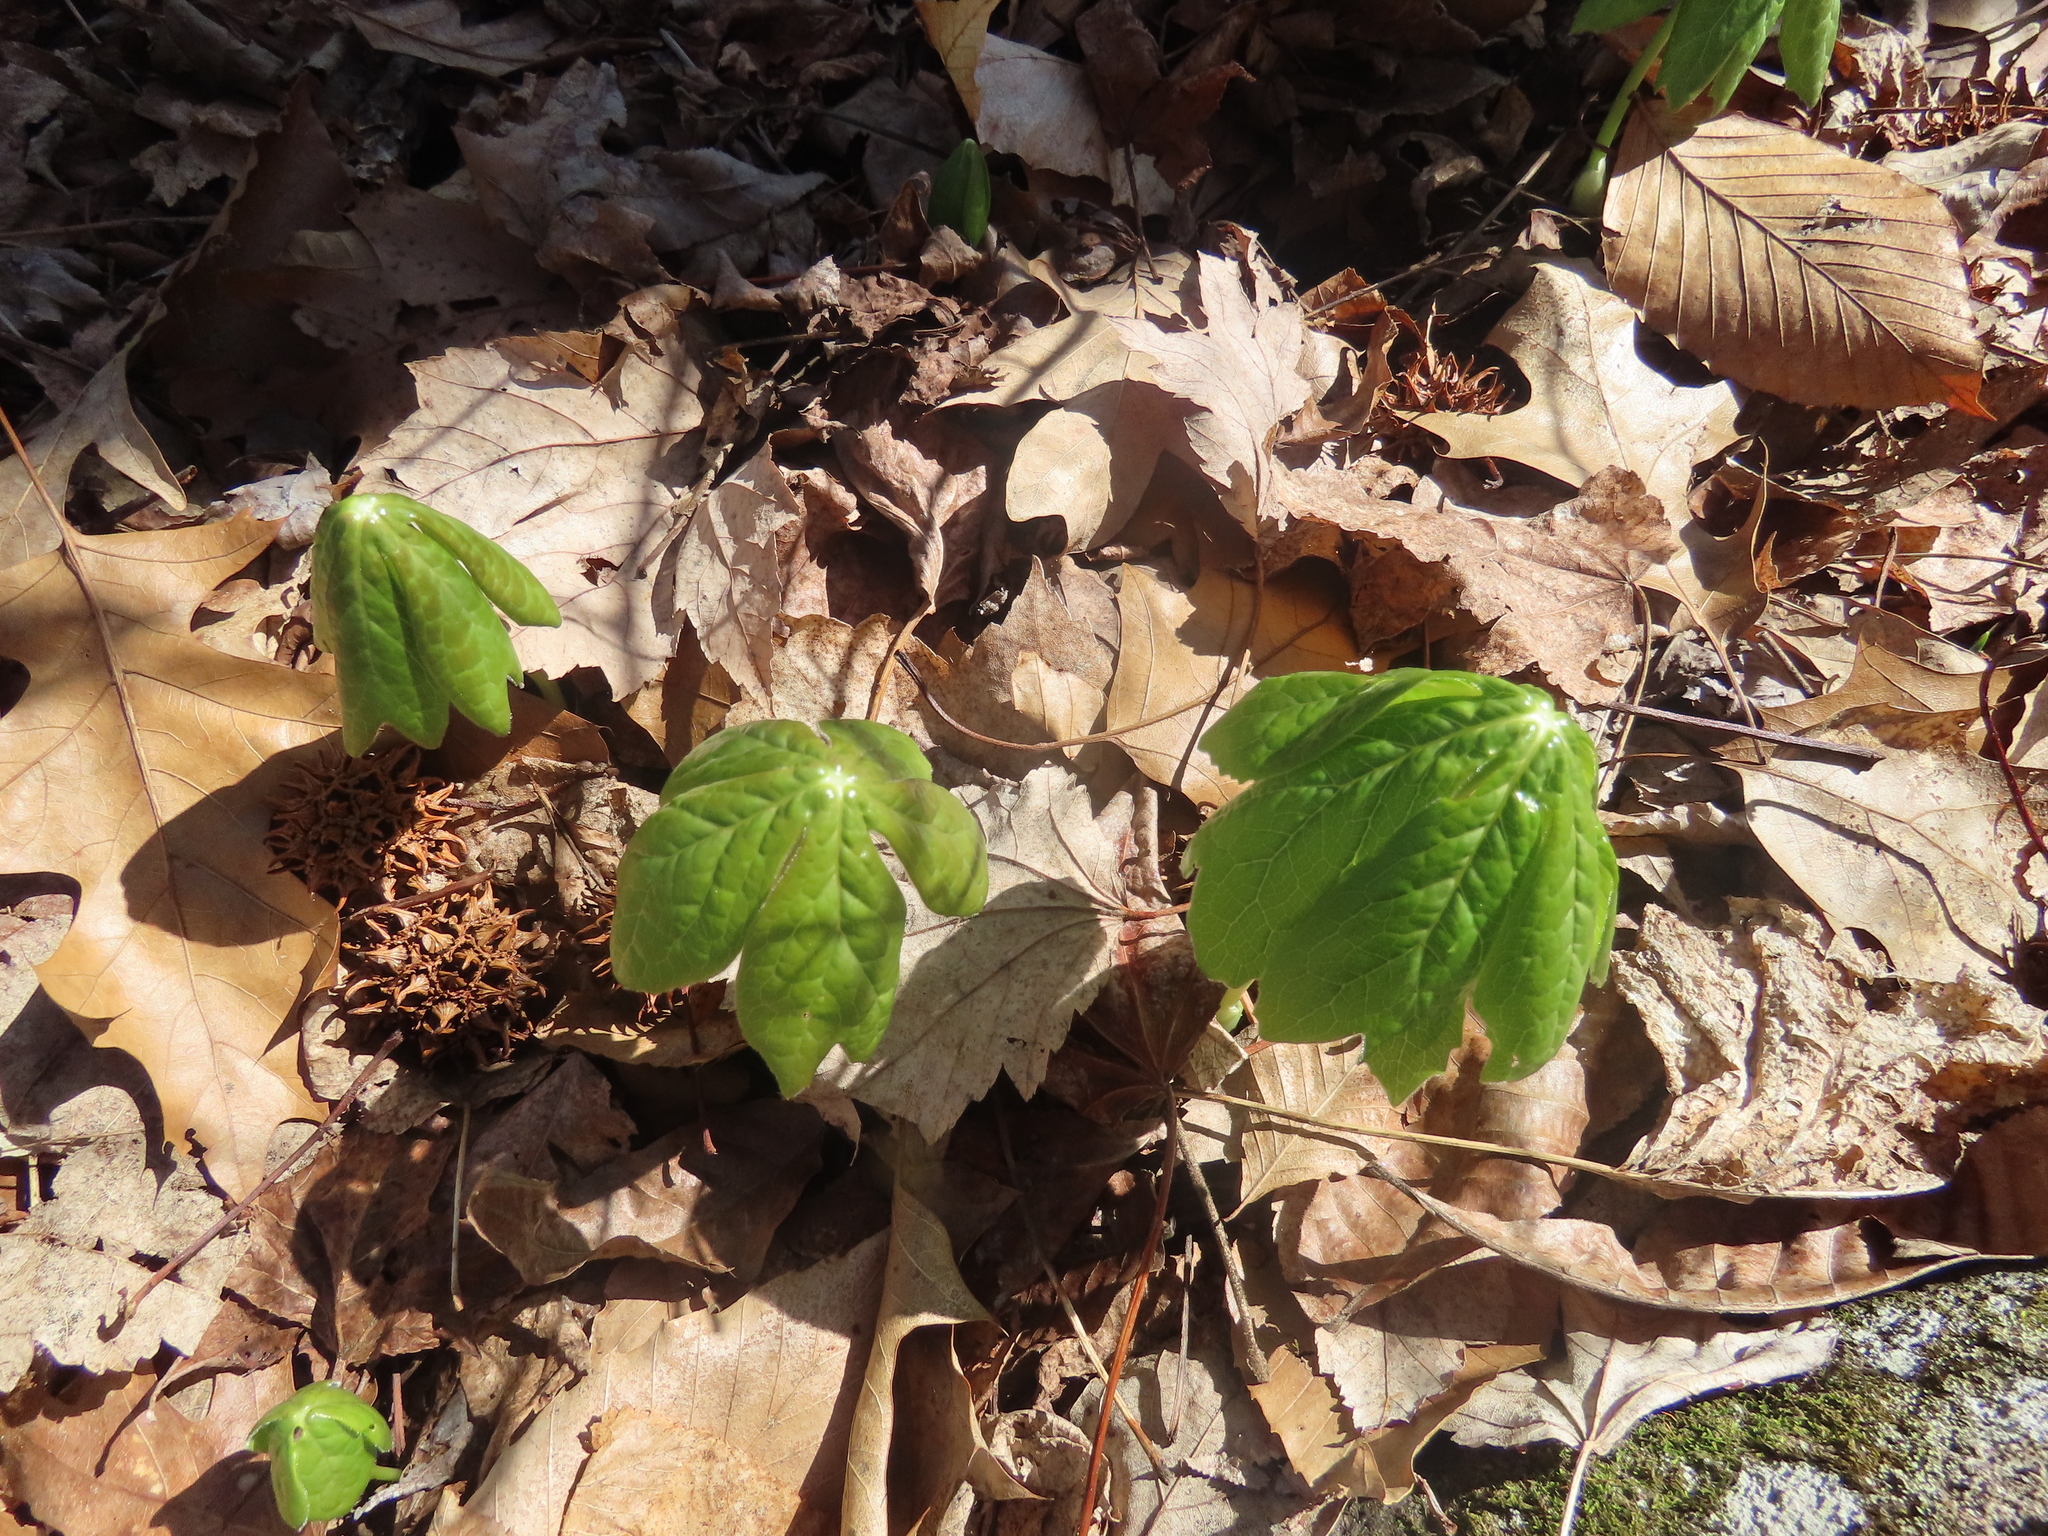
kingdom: Plantae
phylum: Tracheophyta
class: Magnoliopsida
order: Ranunculales
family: Berberidaceae
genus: Podophyllum
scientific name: Podophyllum peltatum
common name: Wild mandrake
